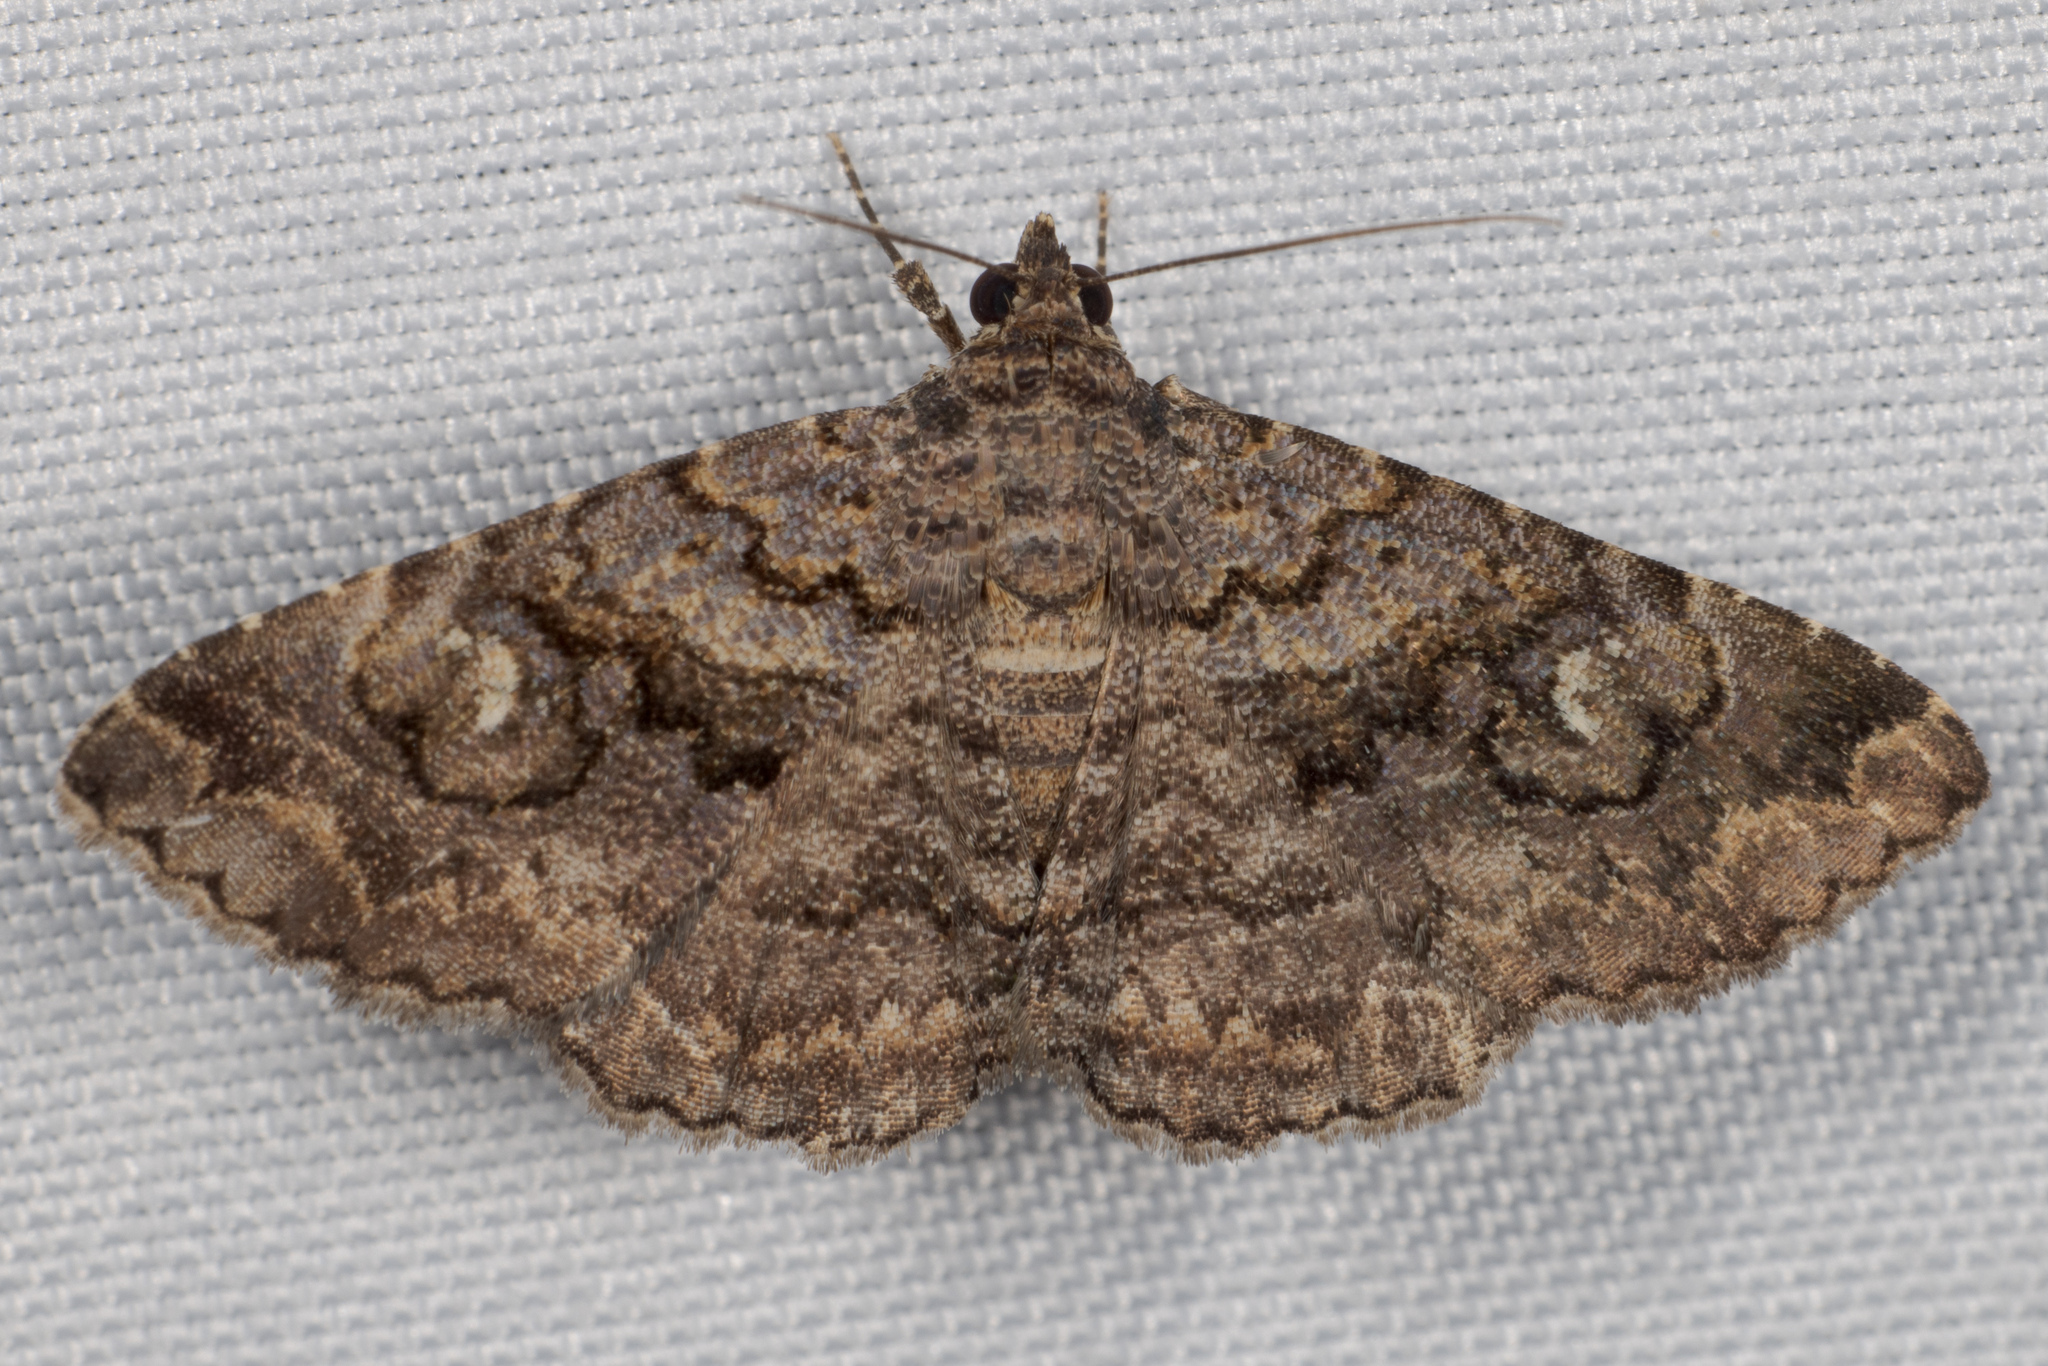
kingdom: Animalia
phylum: Arthropoda
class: Insecta
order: Lepidoptera
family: Erebidae
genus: Toxonprucha
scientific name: Toxonprucha excavata
